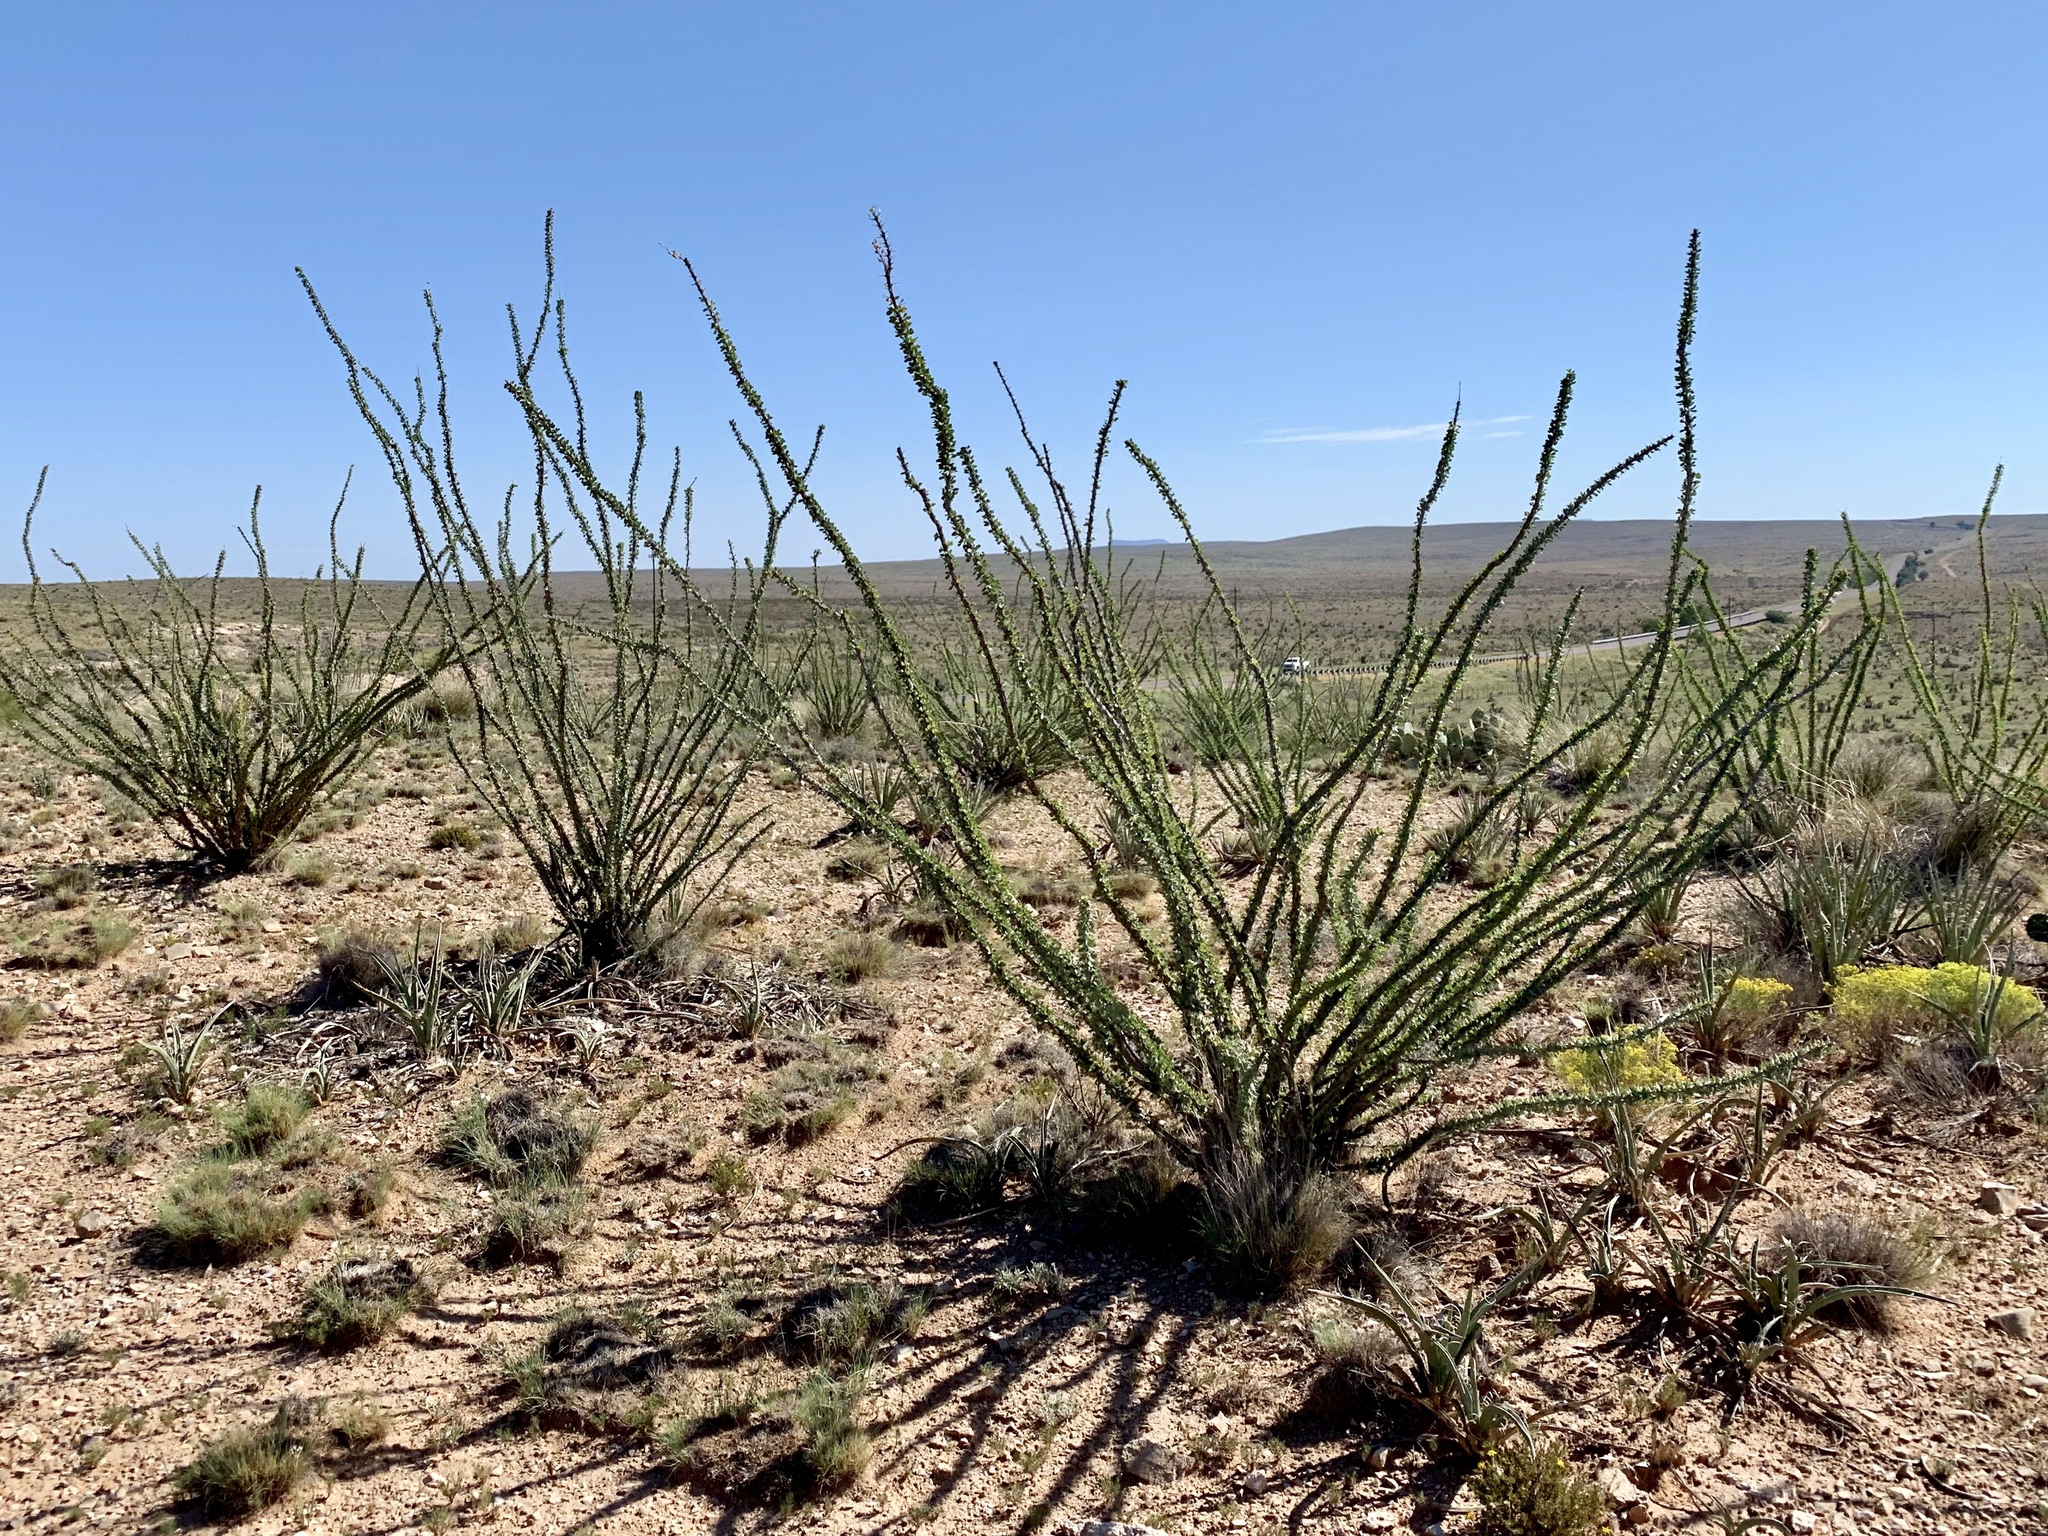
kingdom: Plantae
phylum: Tracheophyta
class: Magnoliopsida
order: Ericales
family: Fouquieriaceae
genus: Fouquieria
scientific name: Fouquieria splendens
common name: Vine-cactus
